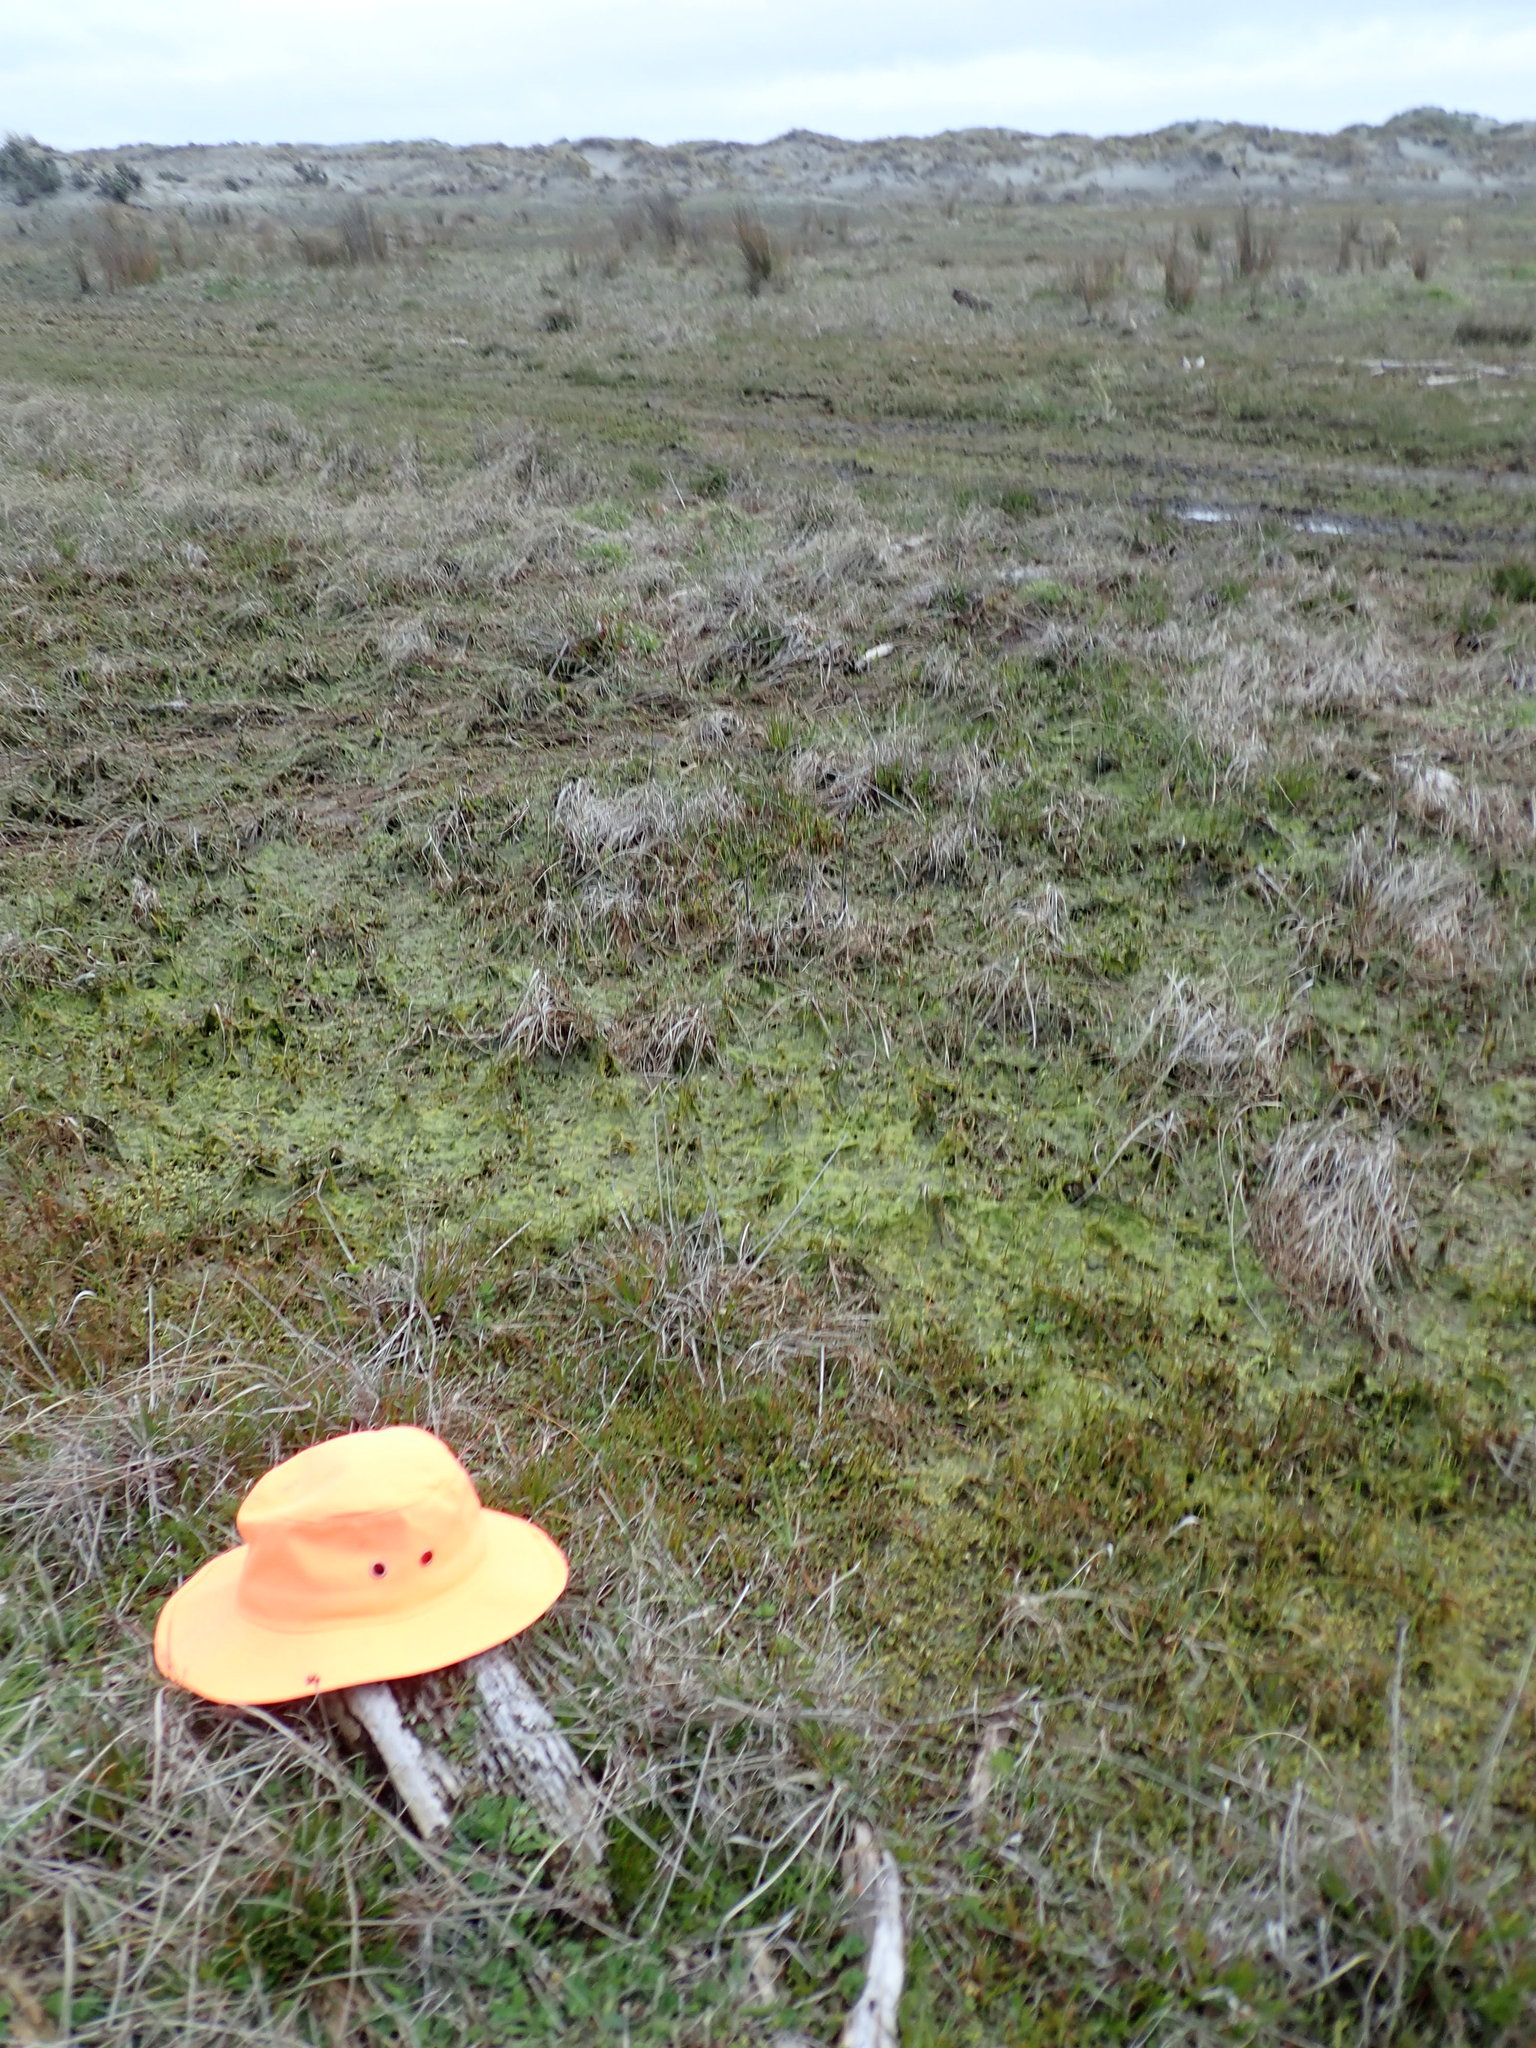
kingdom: Plantae
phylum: Tracheophyta
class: Magnoliopsida
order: Ranunculales
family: Ranunculaceae
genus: Ranunculus
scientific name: Ranunculus acaulis
